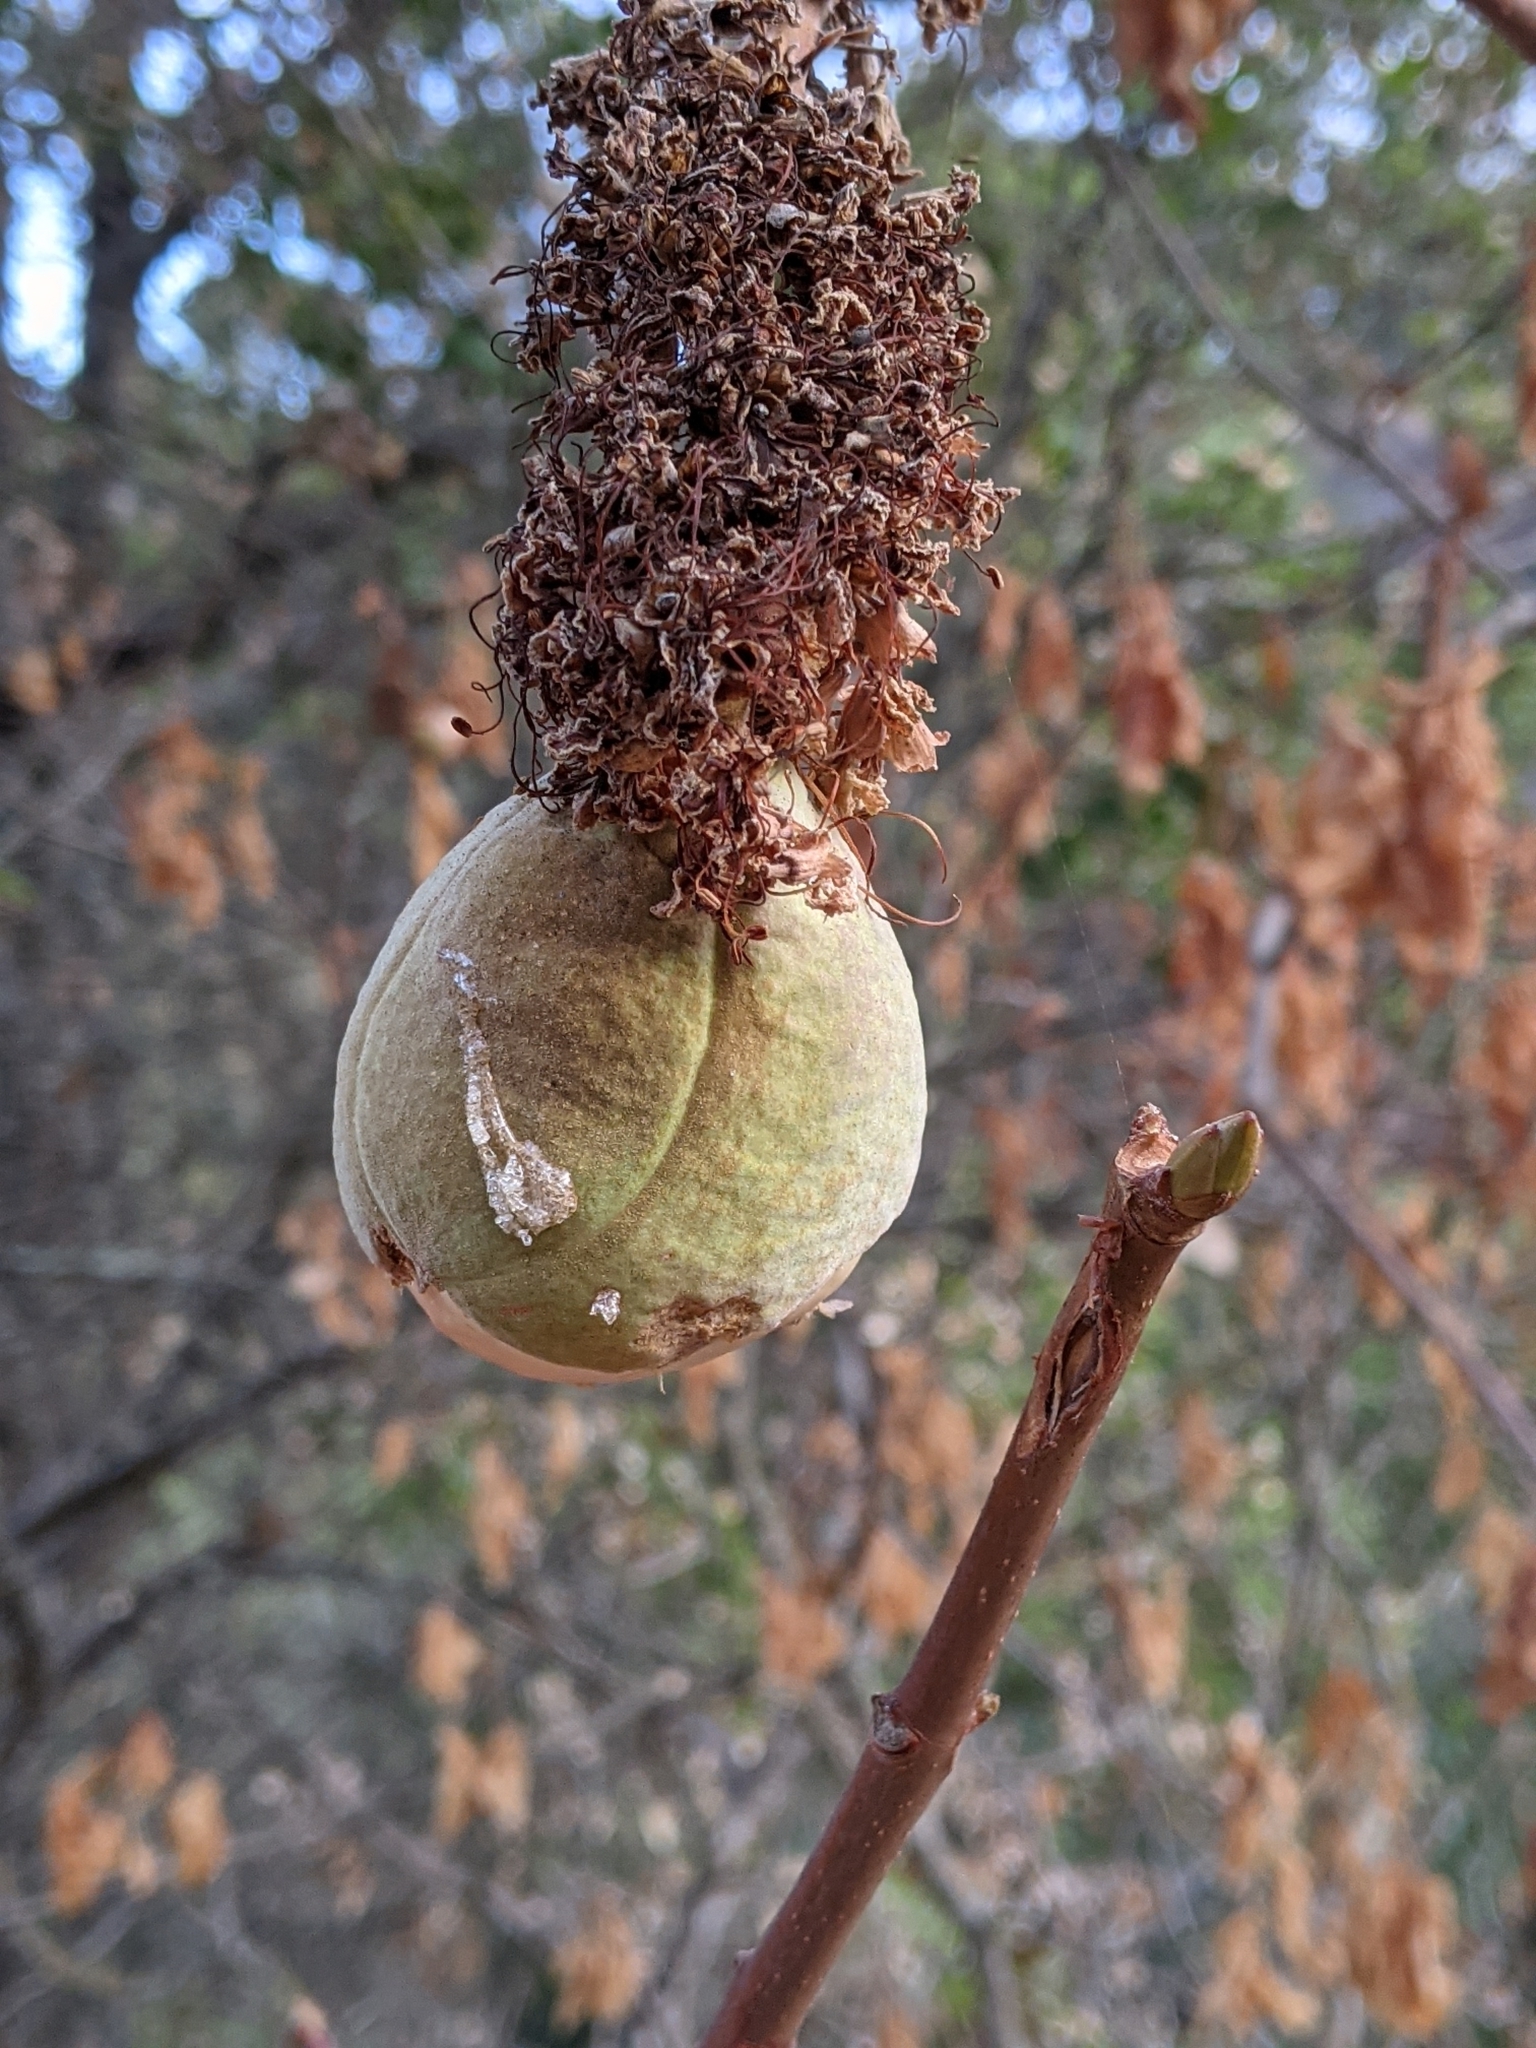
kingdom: Plantae
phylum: Tracheophyta
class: Magnoliopsida
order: Sapindales
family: Sapindaceae
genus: Aesculus
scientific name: Aesculus californica
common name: California buckeye
